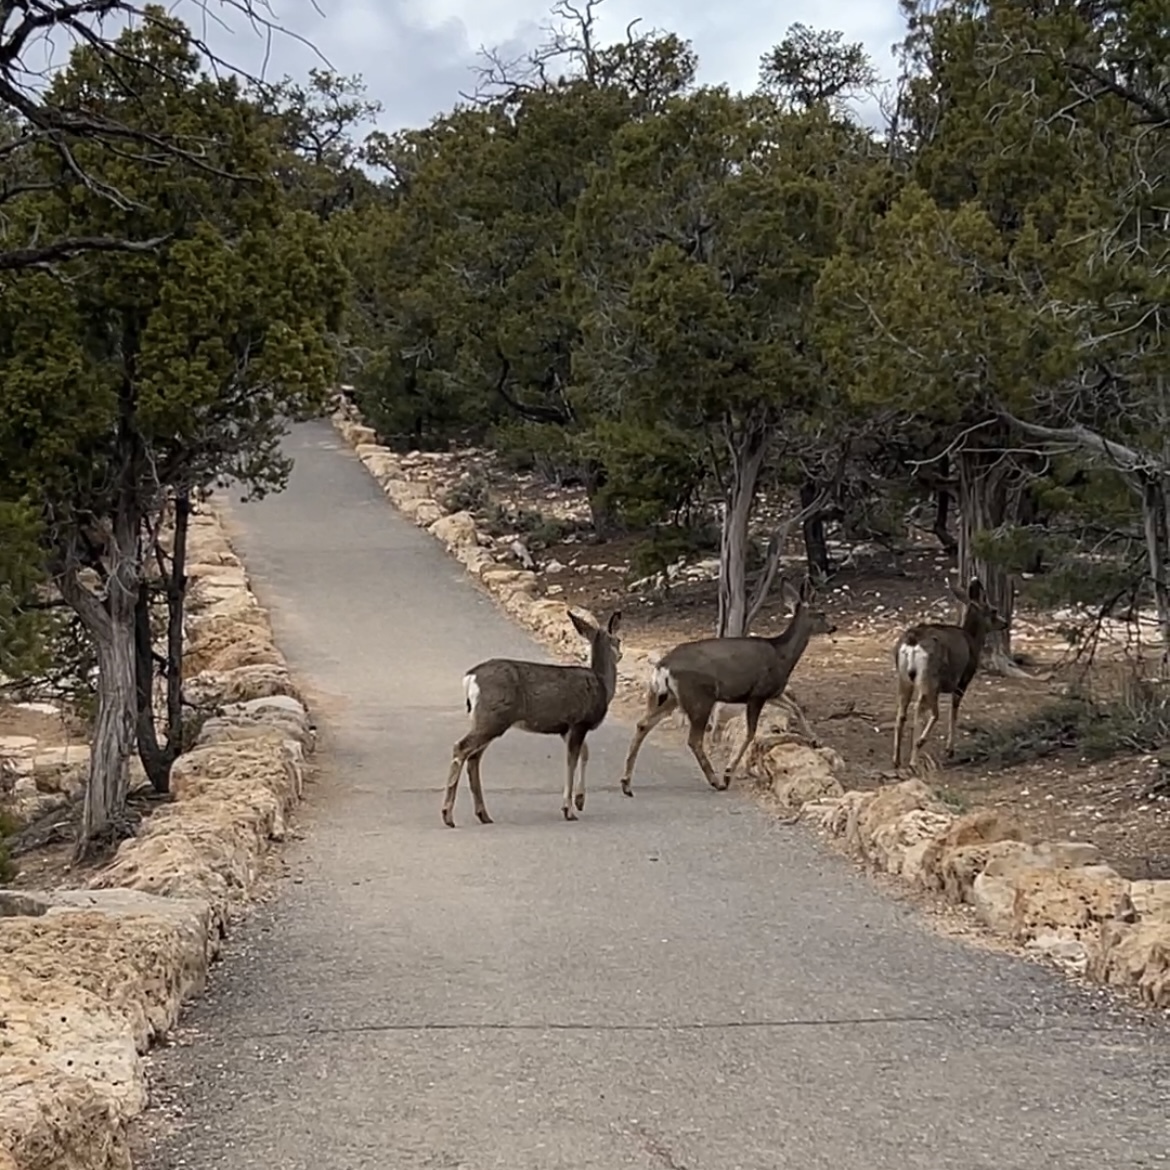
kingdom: Animalia
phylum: Chordata
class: Mammalia
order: Artiodactyla
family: Cervidae
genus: Odocoileus
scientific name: Odocoileus hemionus
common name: Mule deer
